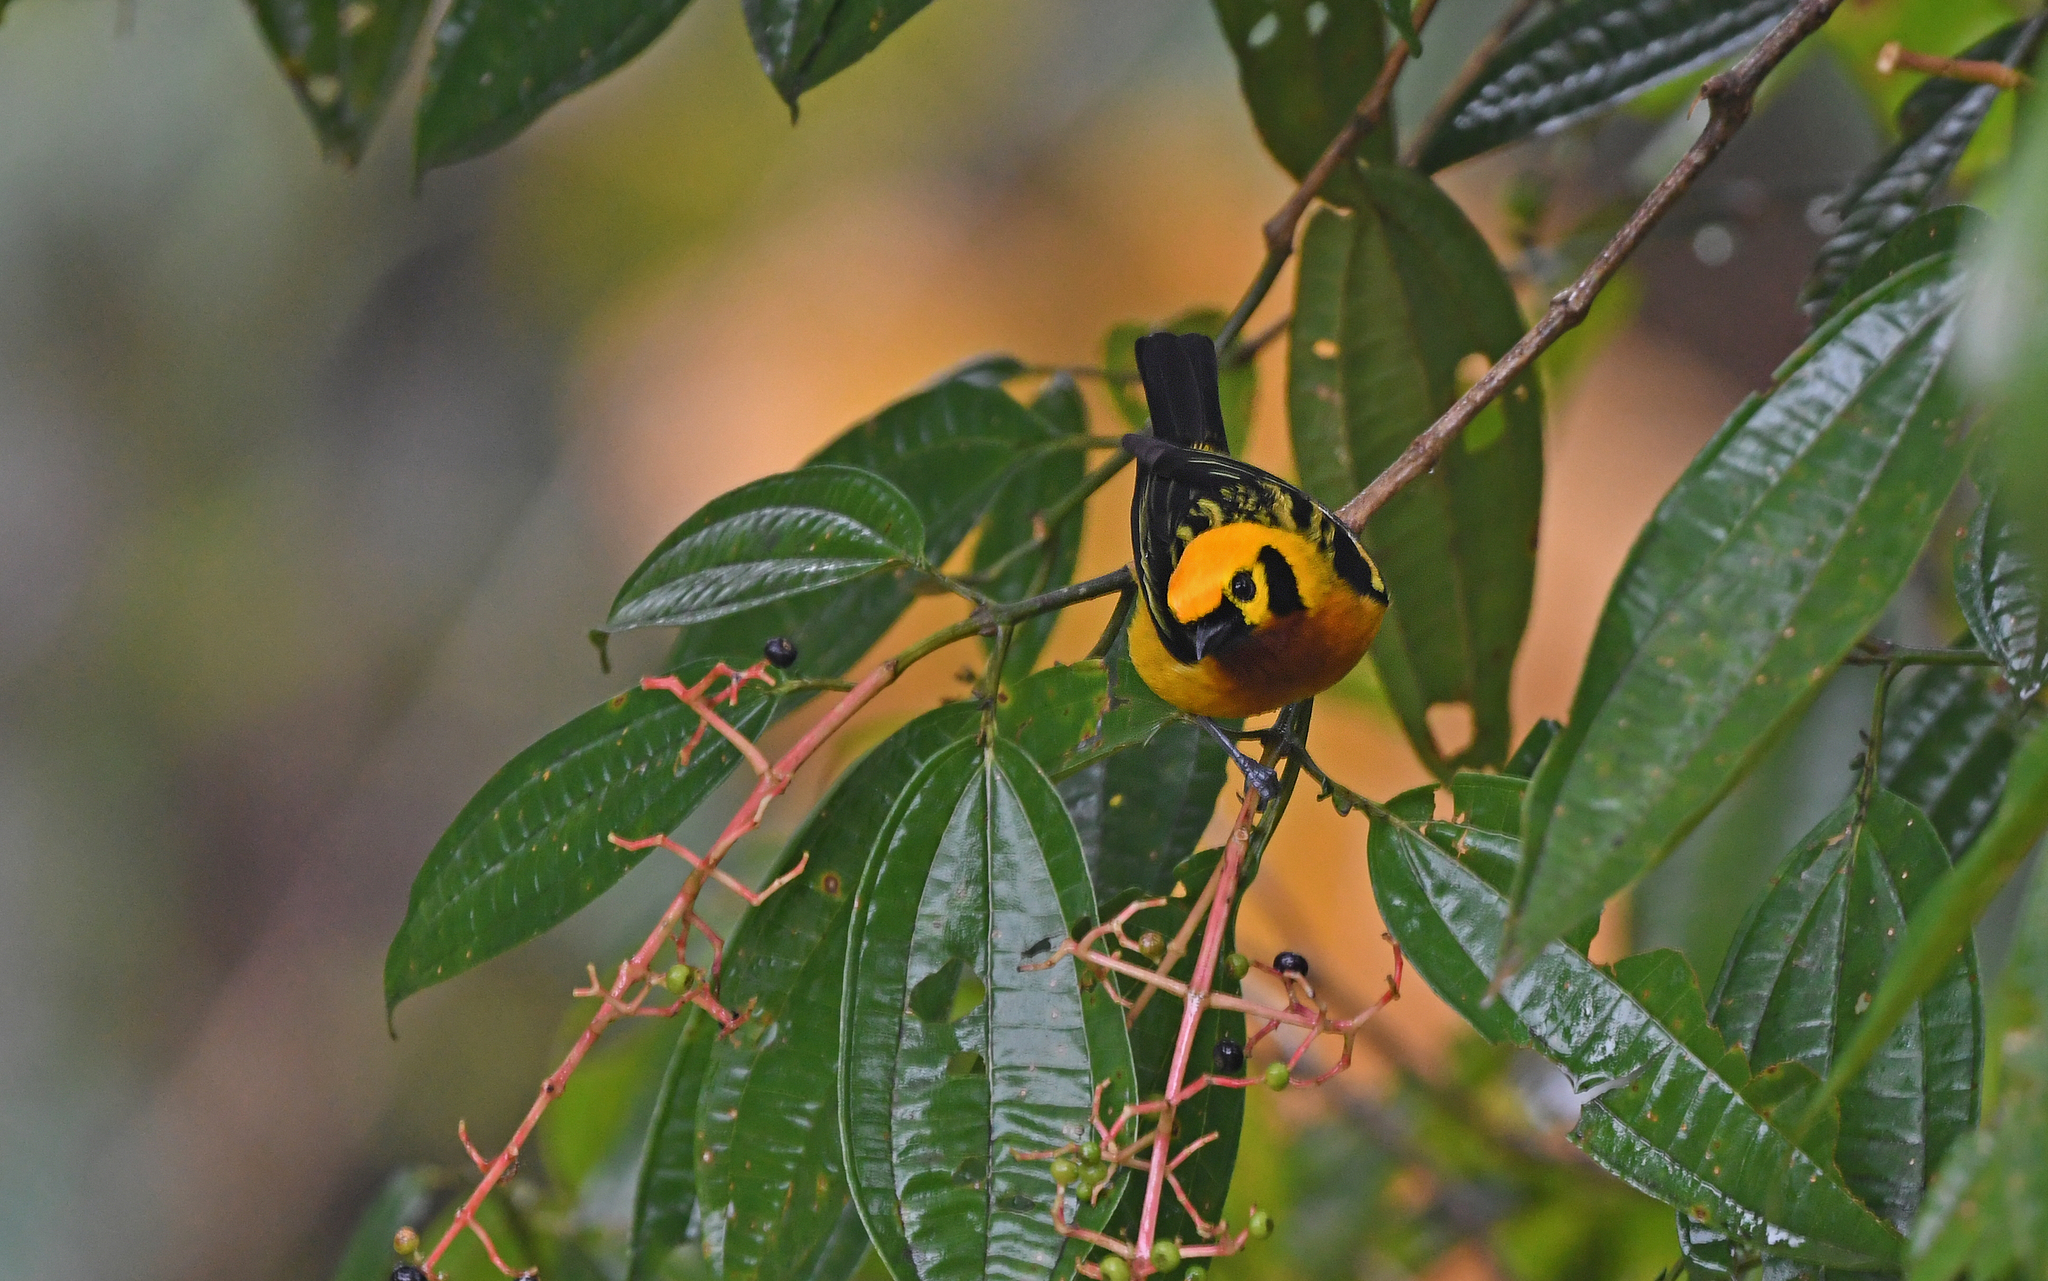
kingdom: Animalia
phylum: Chordata
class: Aves
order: Passeriformes
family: Thraupidae
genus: Tangara
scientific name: Tangara arthus
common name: Golden tanager
